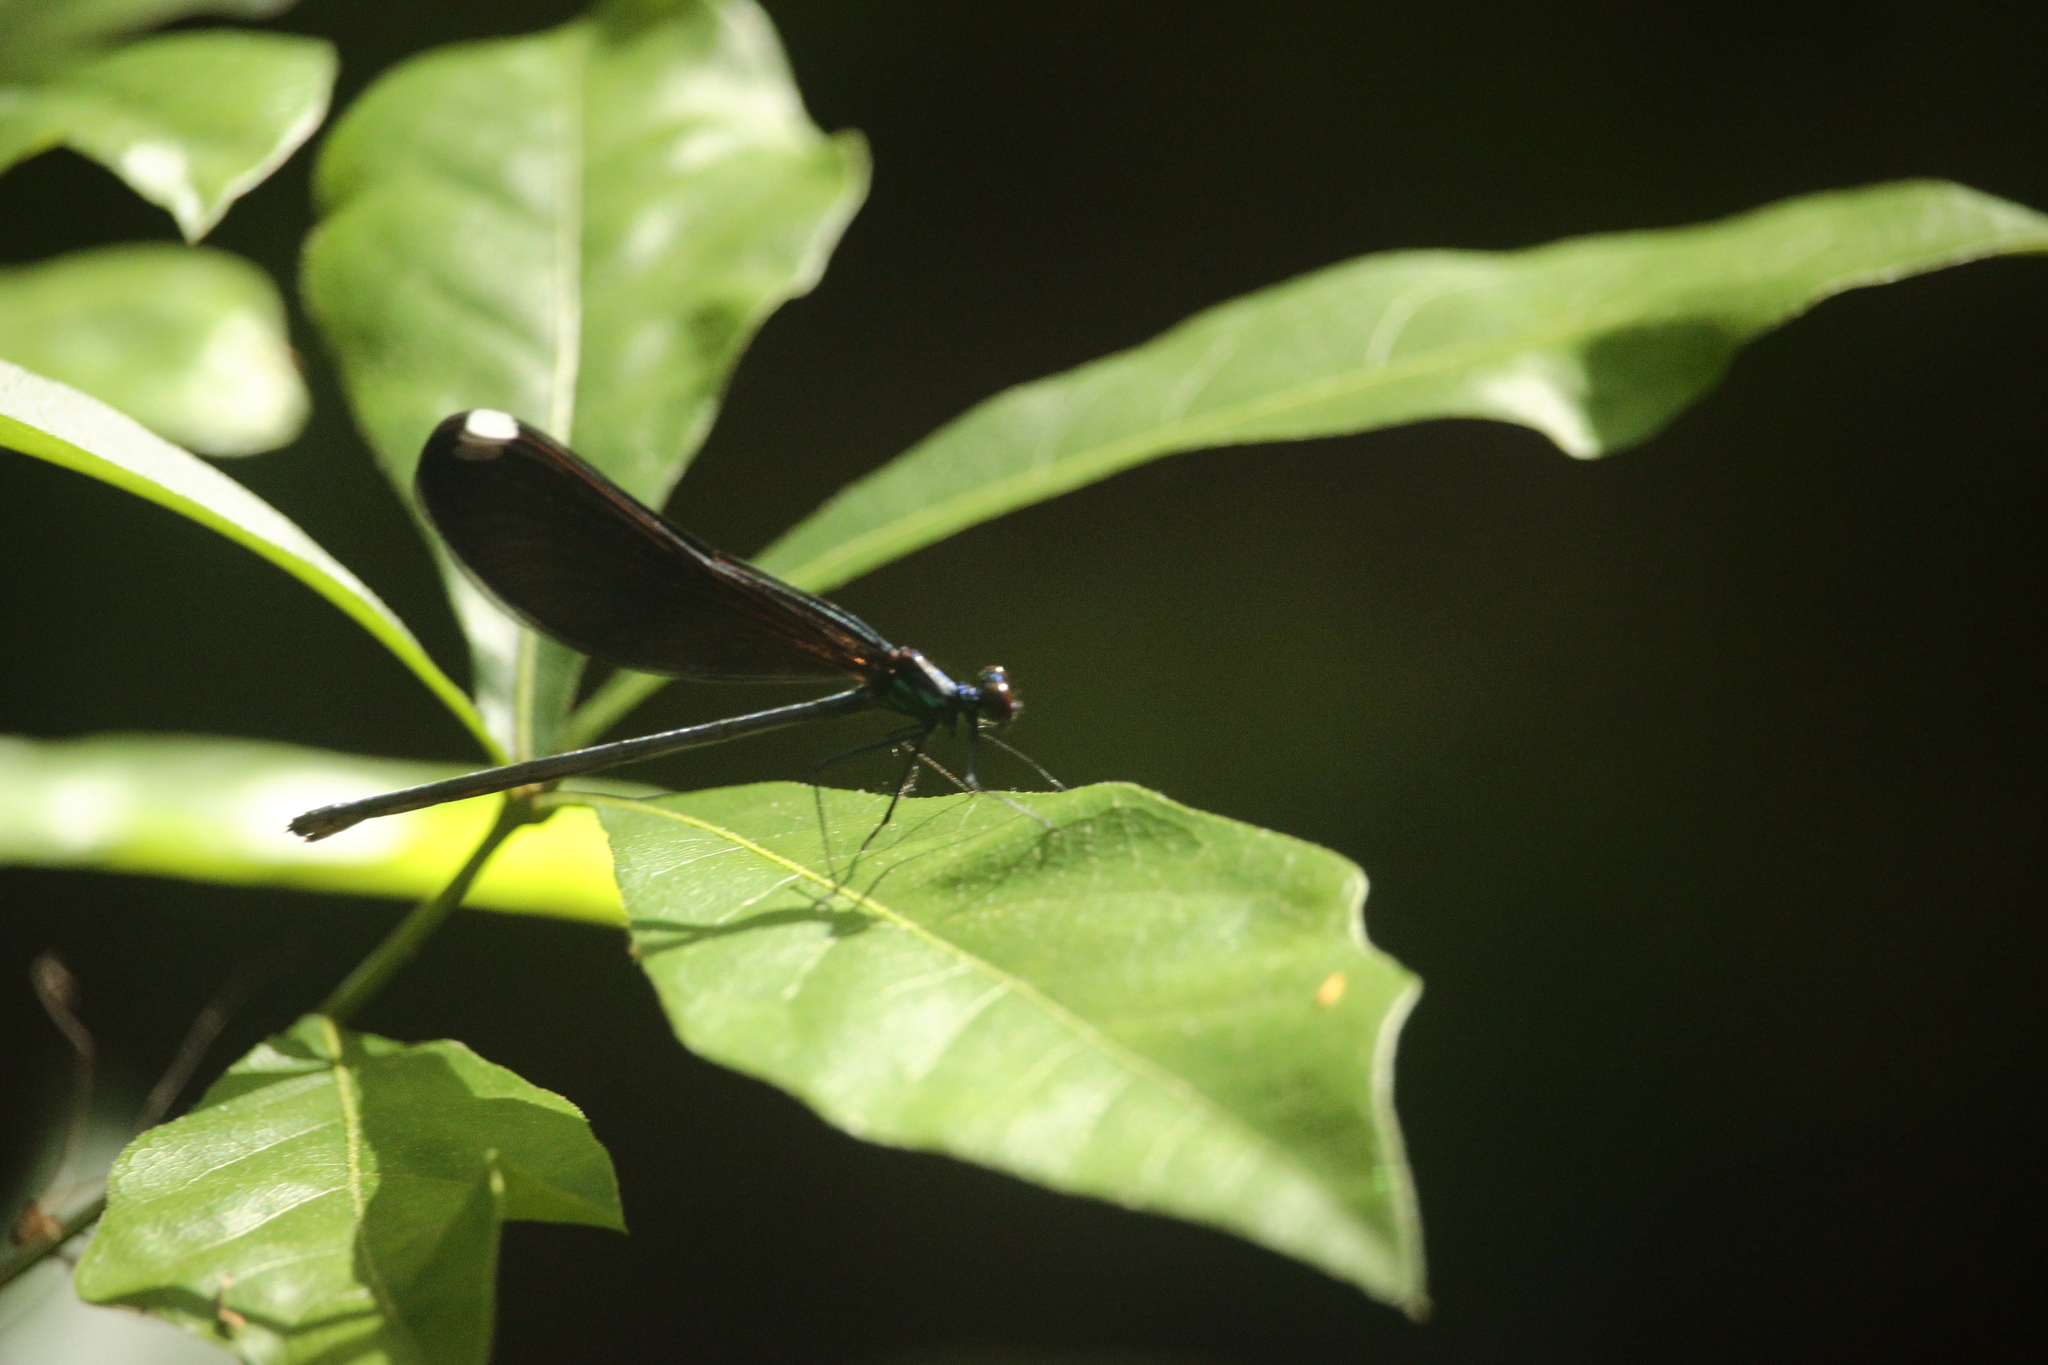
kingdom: Animalia
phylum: Arthropoda
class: Insecta
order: Odonata
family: Calopterygidae
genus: Calopteryx
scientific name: Calopteryx maculata
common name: Ebony jewelwing
